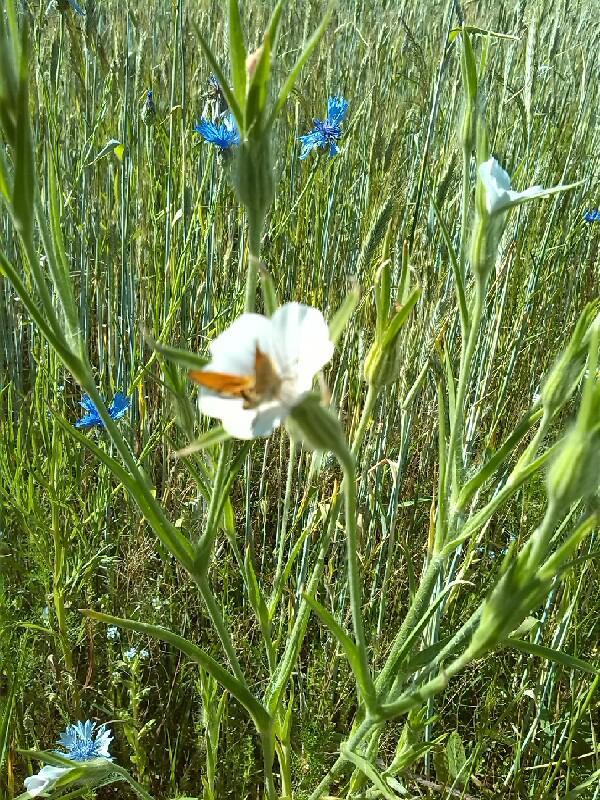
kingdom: Plantae
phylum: Tracheophyta
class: Magnoliopsida
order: Caryophyllales
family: Caryophyllaceae
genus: Agrostemma
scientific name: Agrostemma githago
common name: Common corncockle
